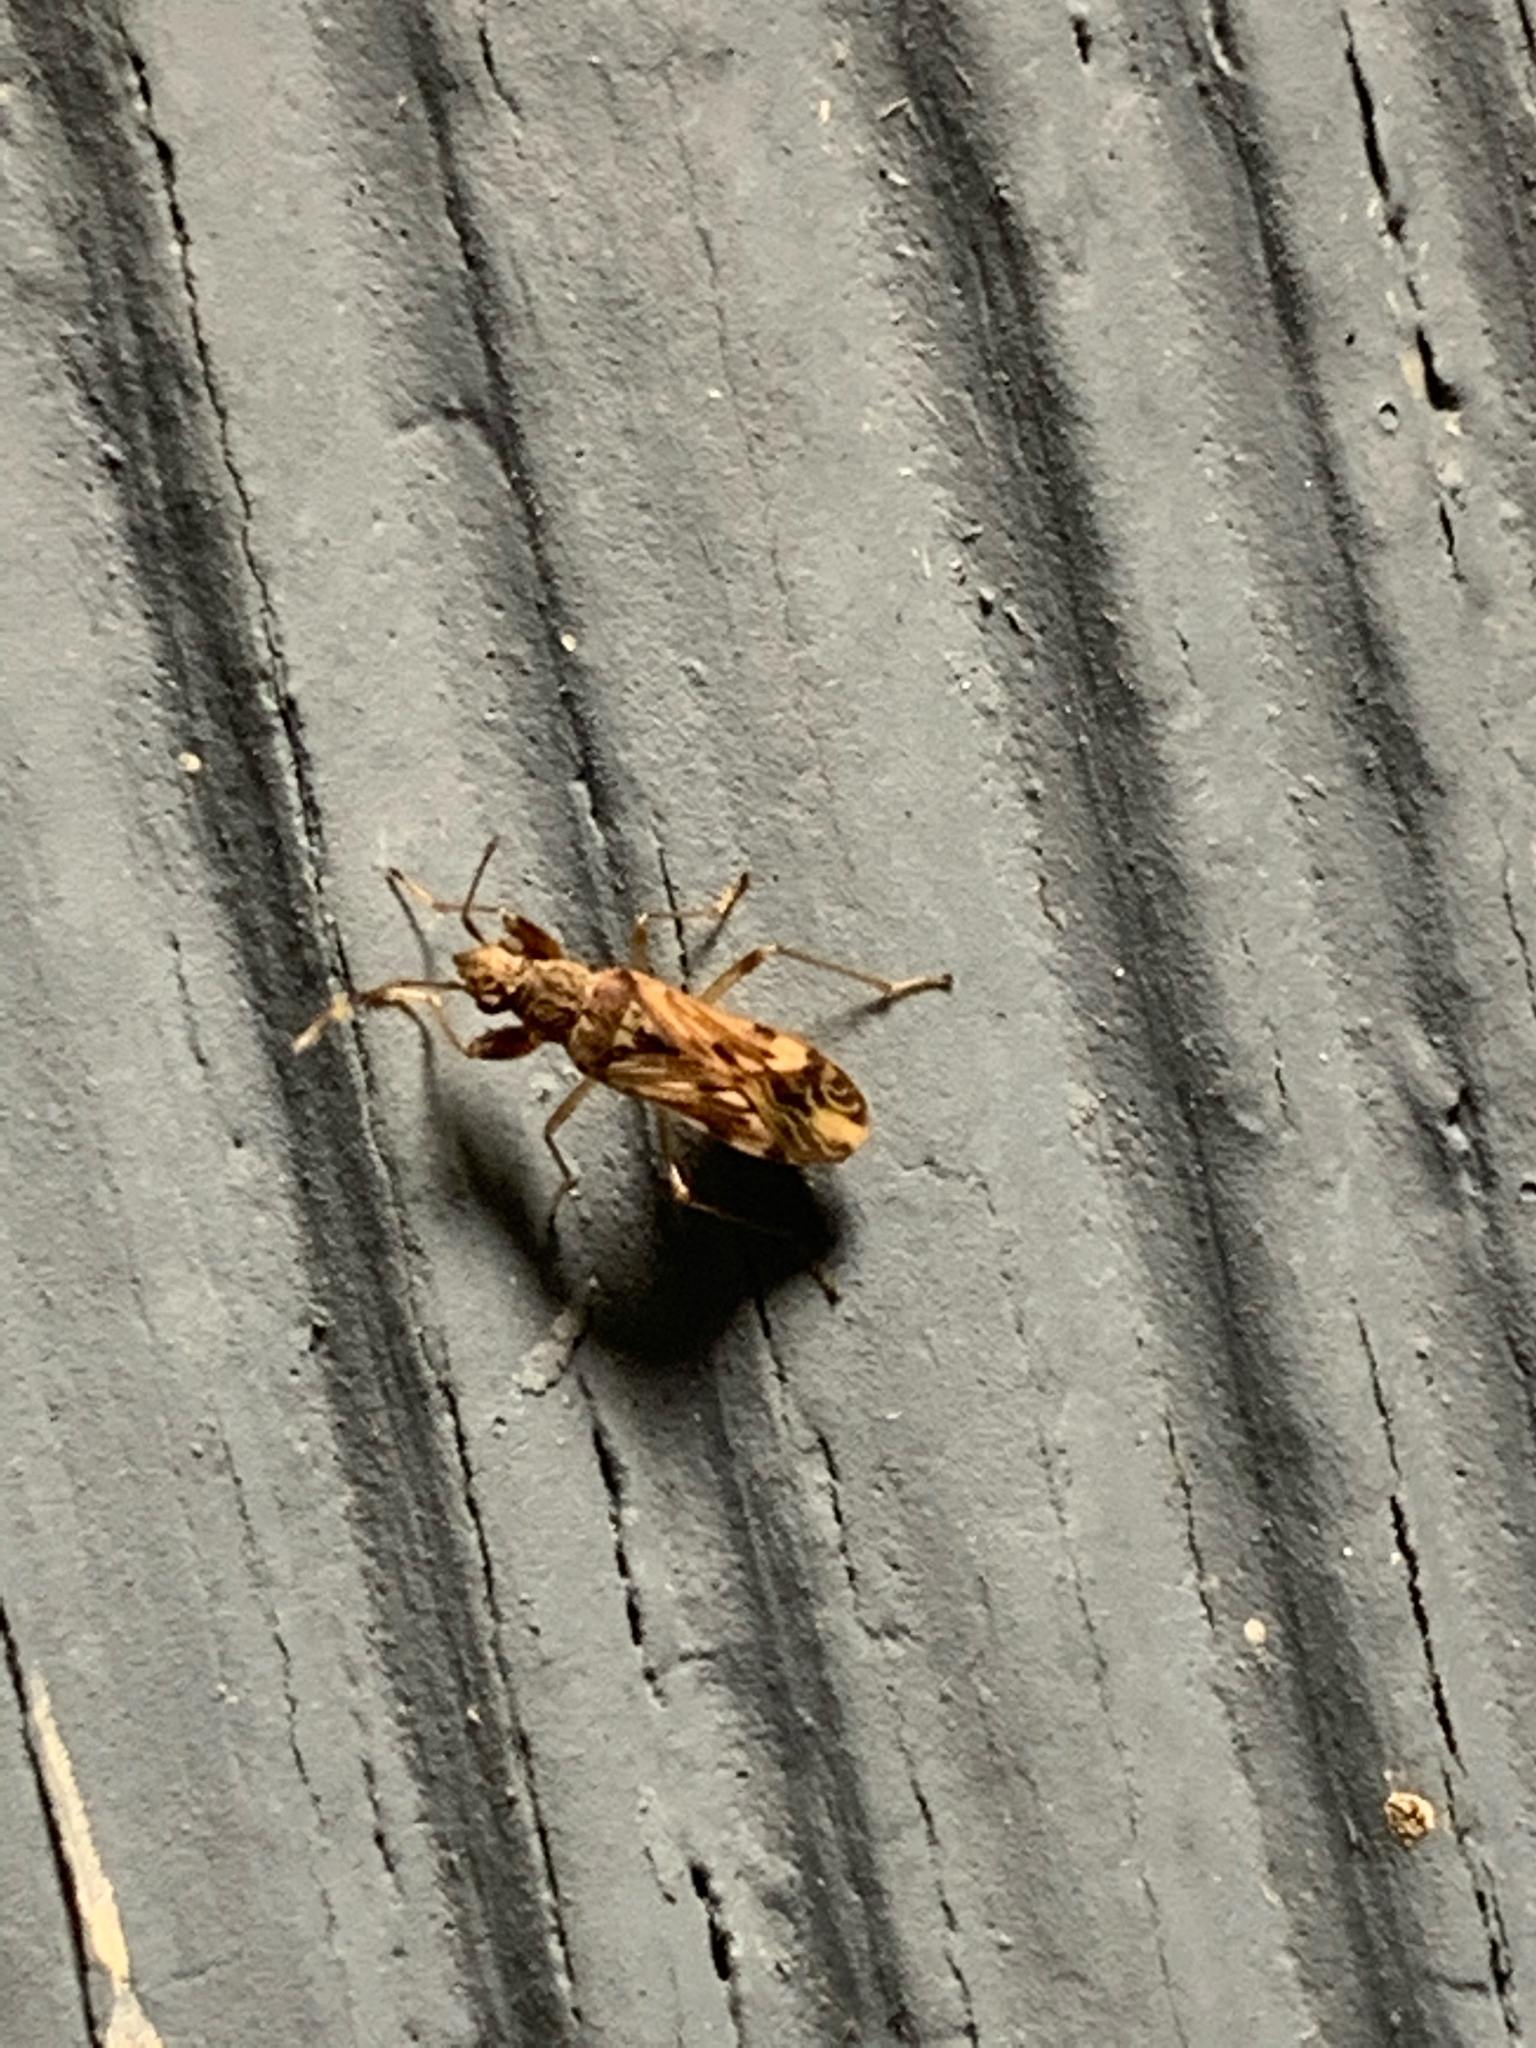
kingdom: Animalia
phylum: Arthropoda
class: Insecta
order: Hemiptera
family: Rhyparochromidae
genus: Neopamera
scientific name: Neopamera albocincta
